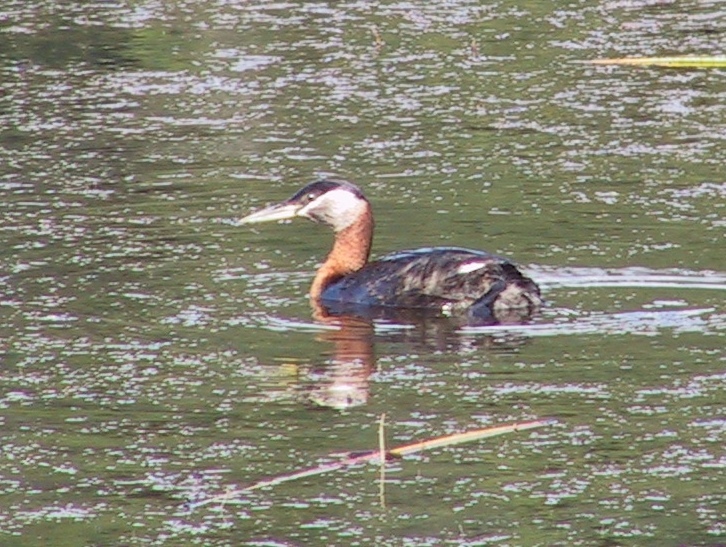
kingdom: Animalia
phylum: Chordata
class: Aves
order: Podicipediformes
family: Podicipedidae
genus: Podiceps
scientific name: Podiceps grisegena
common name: Red-necked grebe
